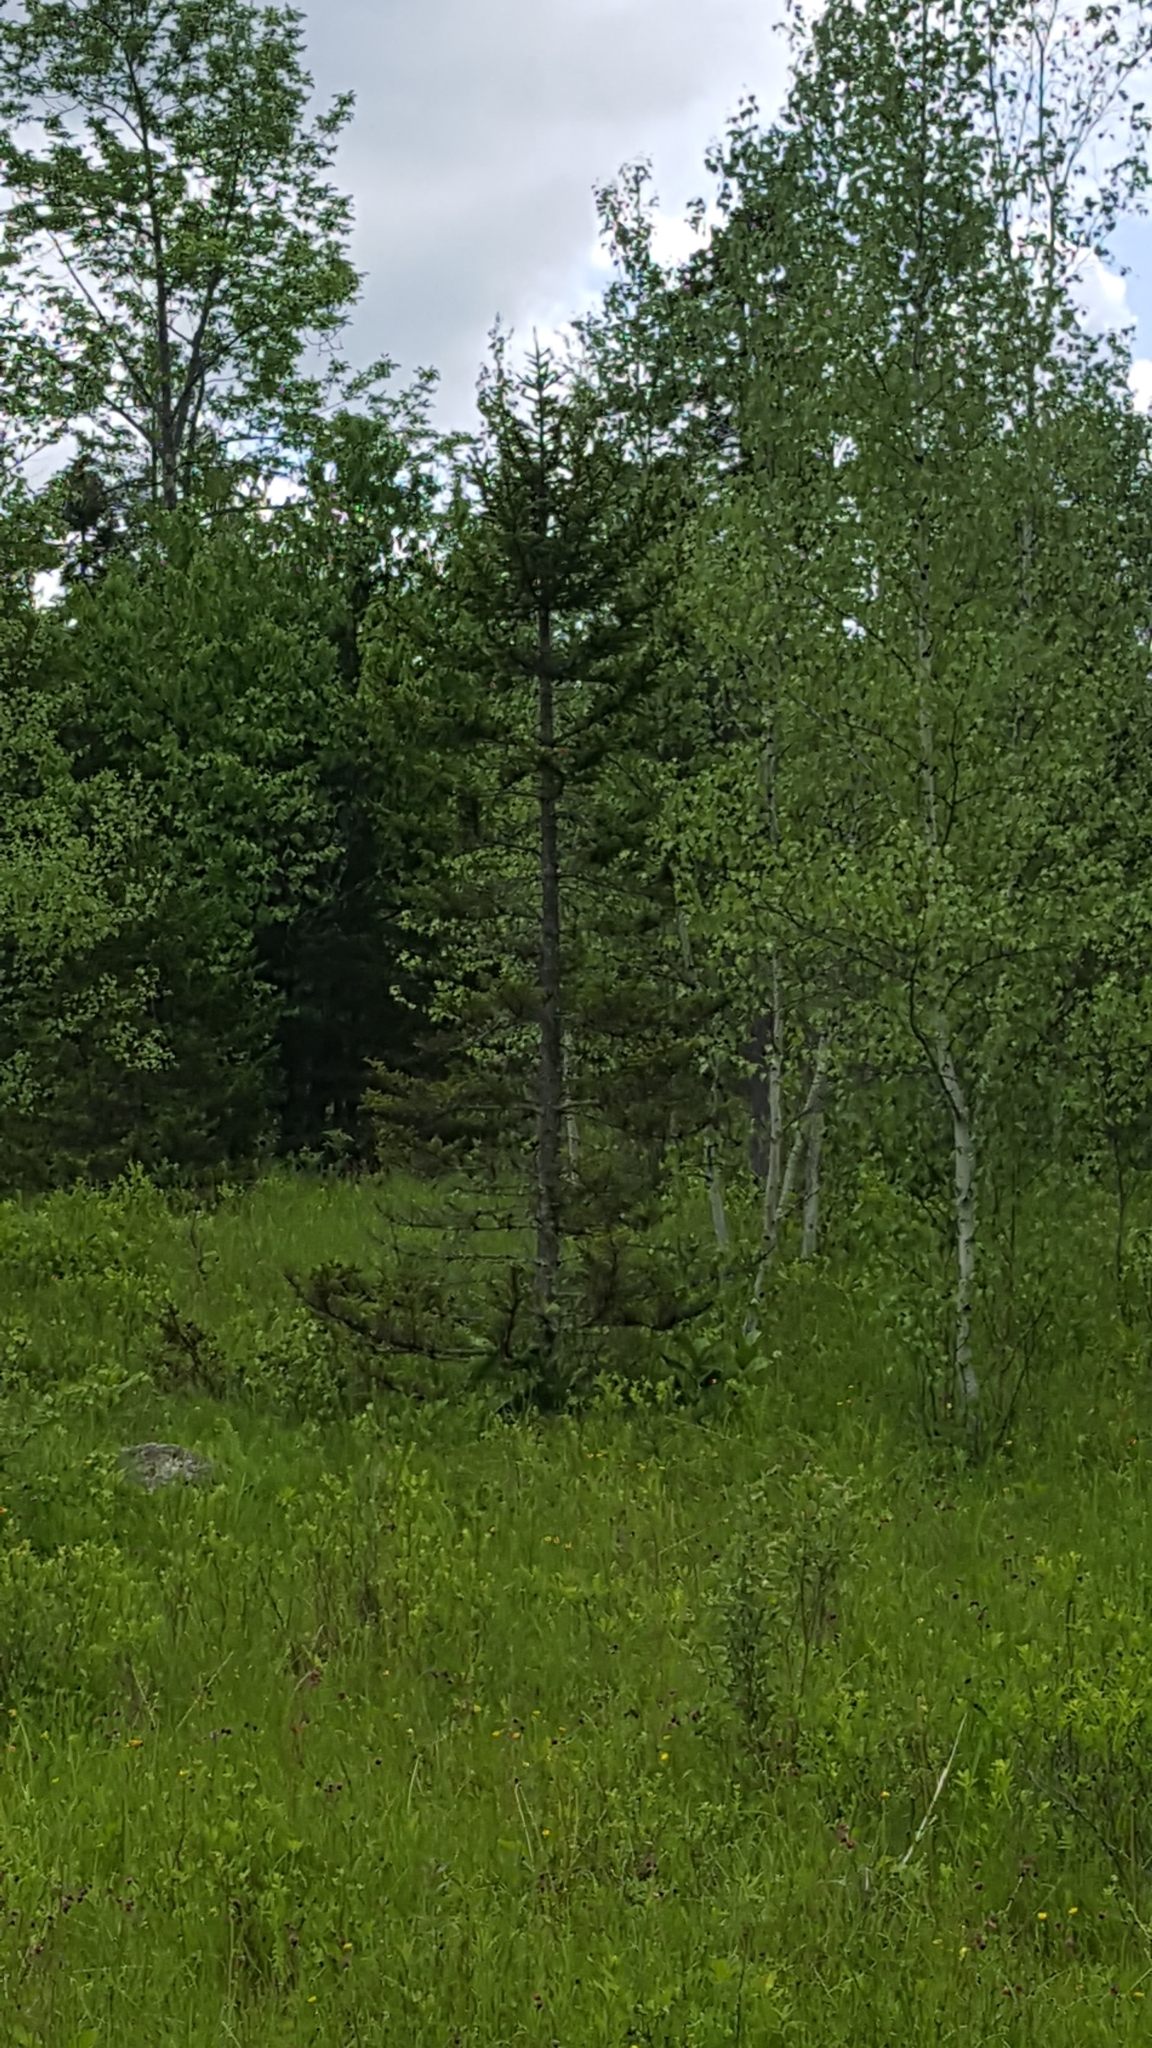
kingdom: Plantae
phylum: Tracheophyta
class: Pinopsida
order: Pinales
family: Pinaceae
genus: Picea
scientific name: Picea rubens
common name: Red spruce
